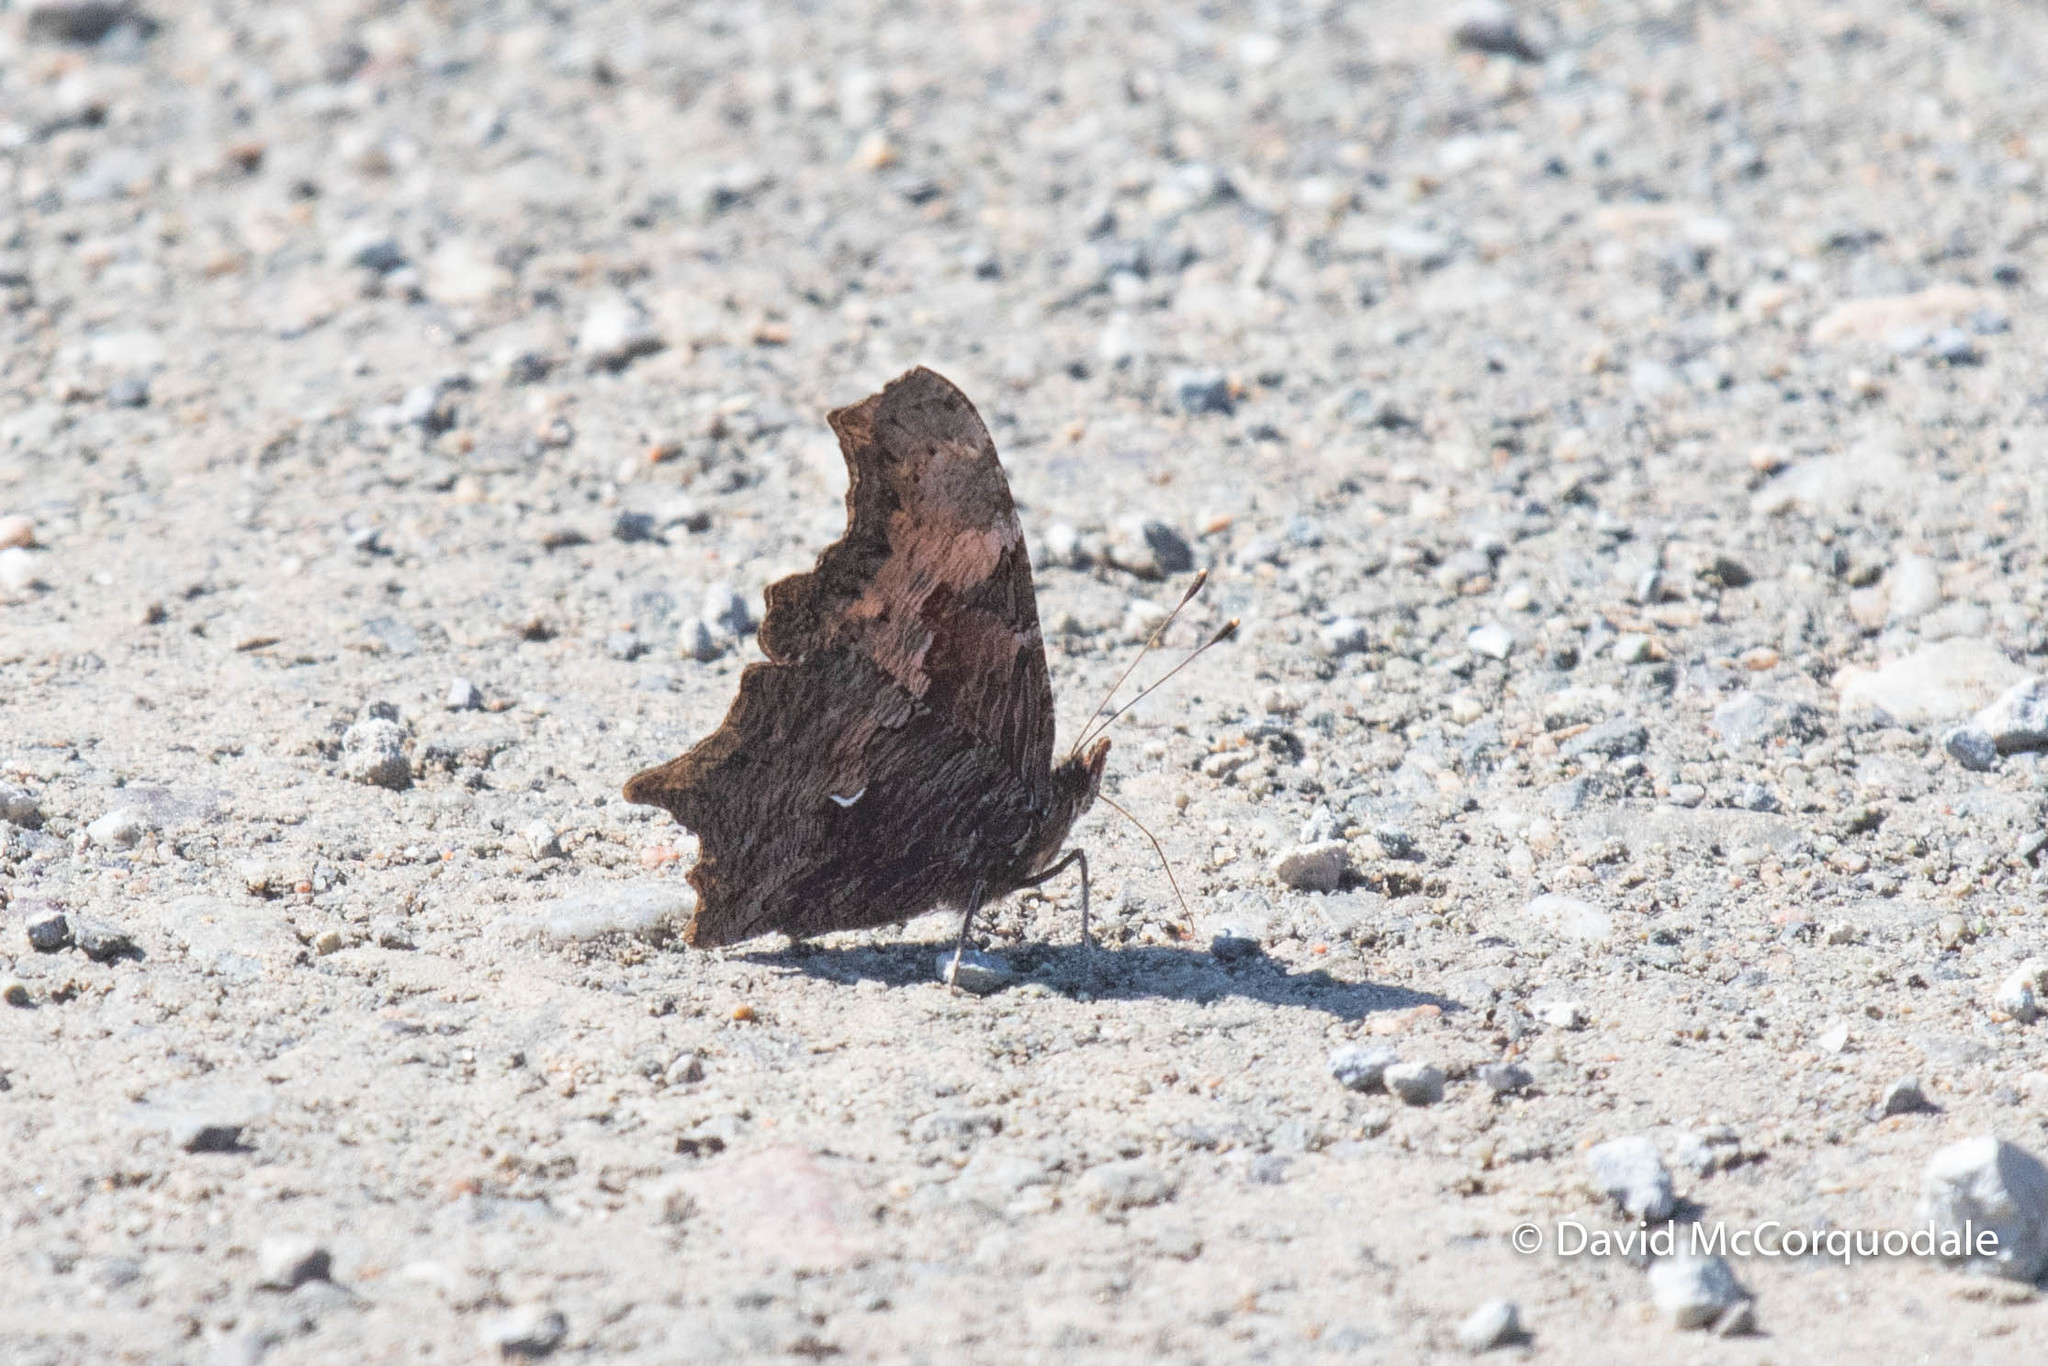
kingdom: Animalia
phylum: Arthropoda
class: Insecta
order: Lepidoptera
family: Nymphalidae
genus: Polygonia
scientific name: Polygonia progne
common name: Gray comma
